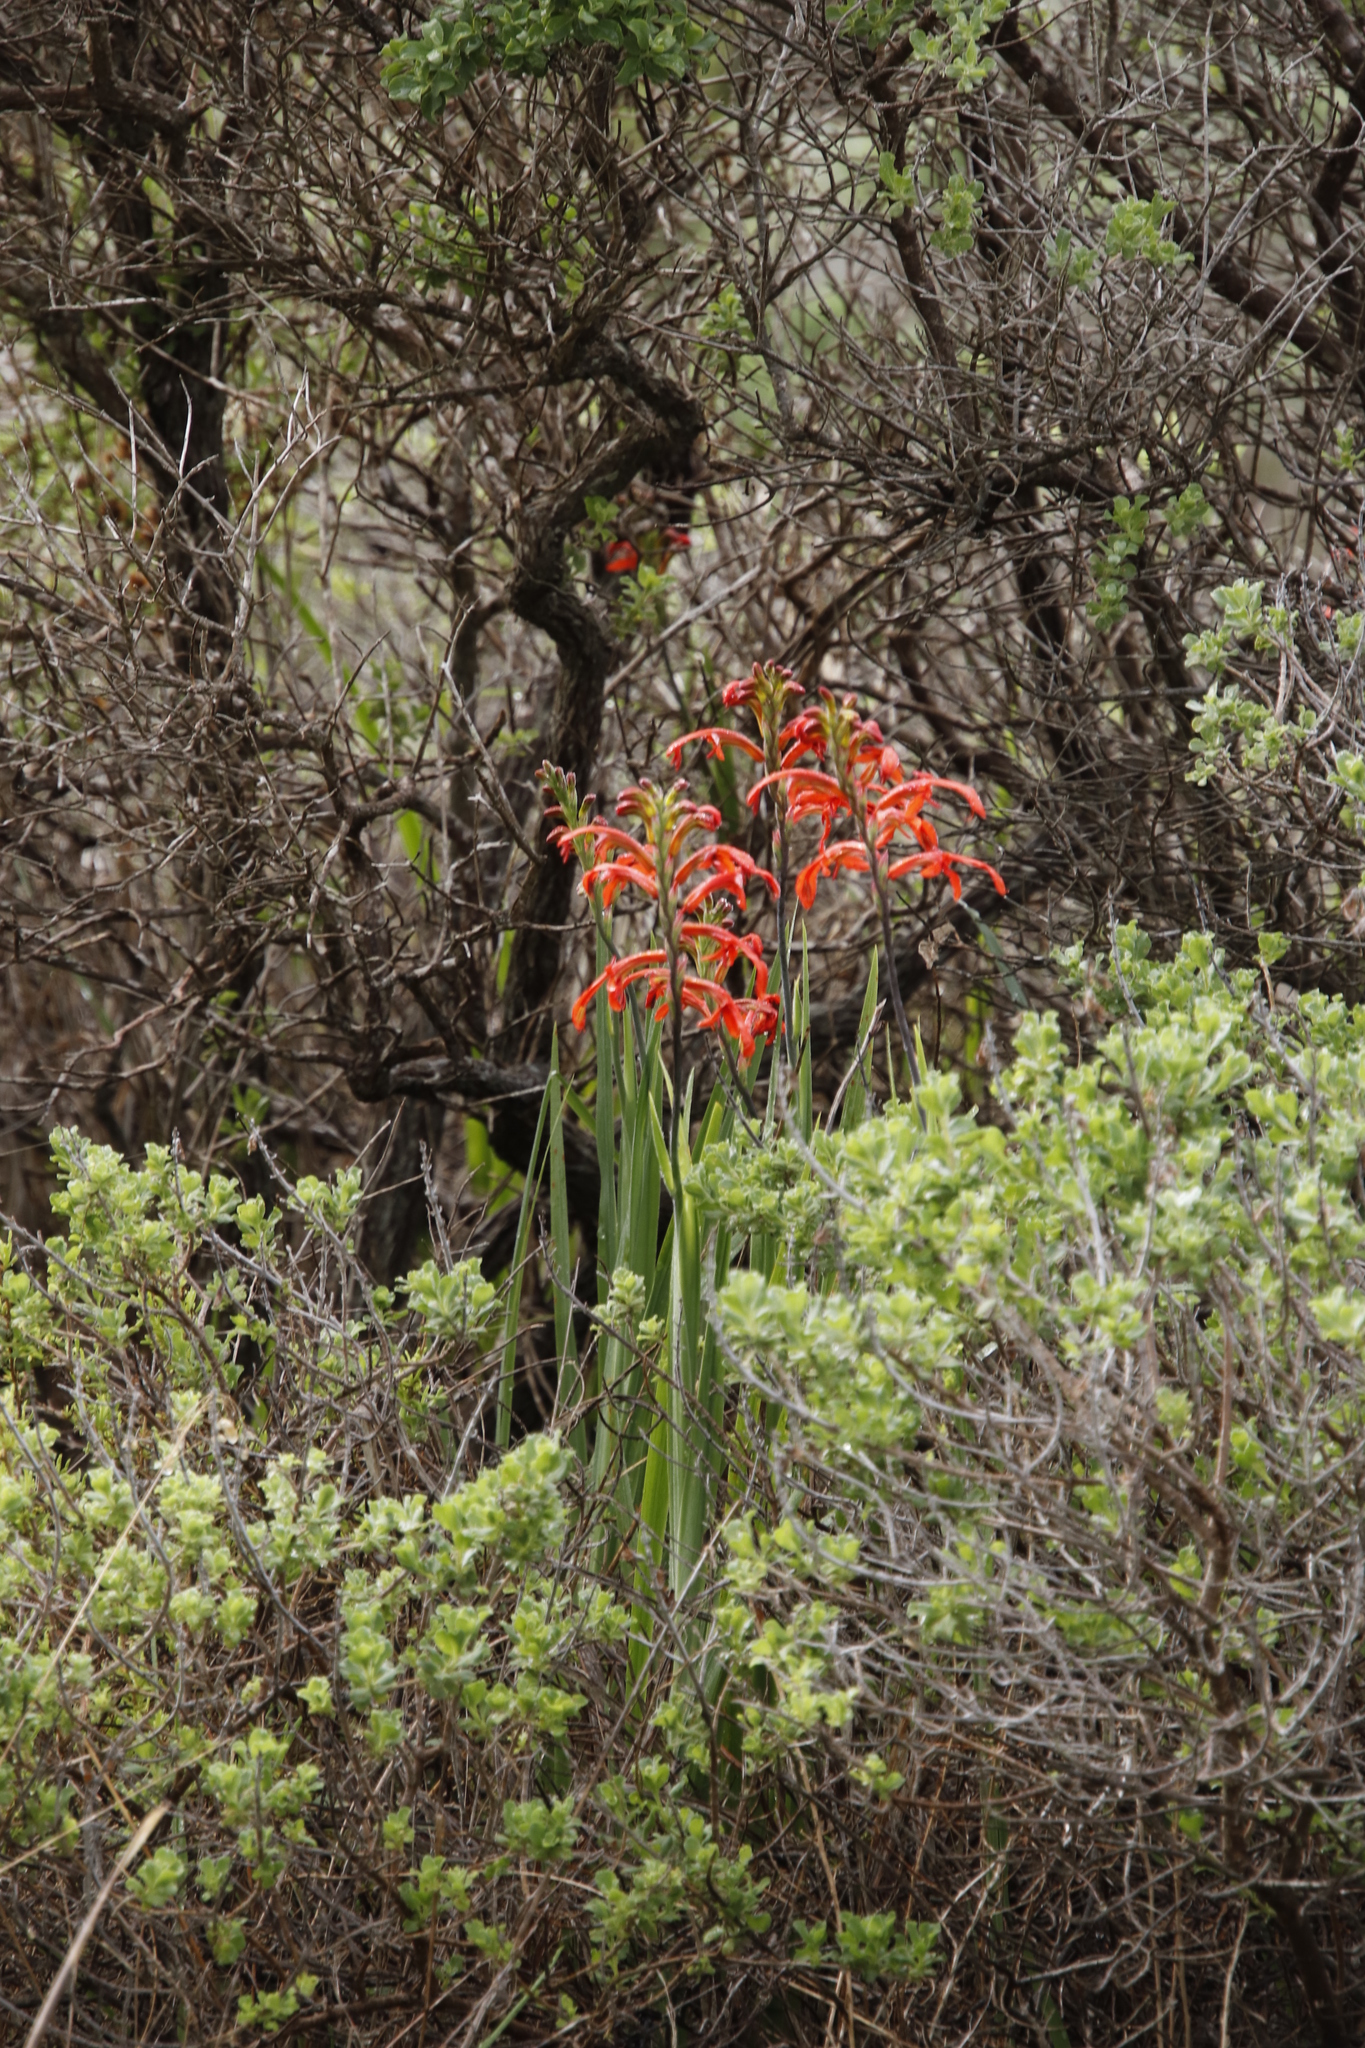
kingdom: Plantae
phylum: Tracheophyta
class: Liliopsida
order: Asparagales
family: Iridaceae
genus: Chasmanthe
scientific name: Chasmanthe aethiopica
